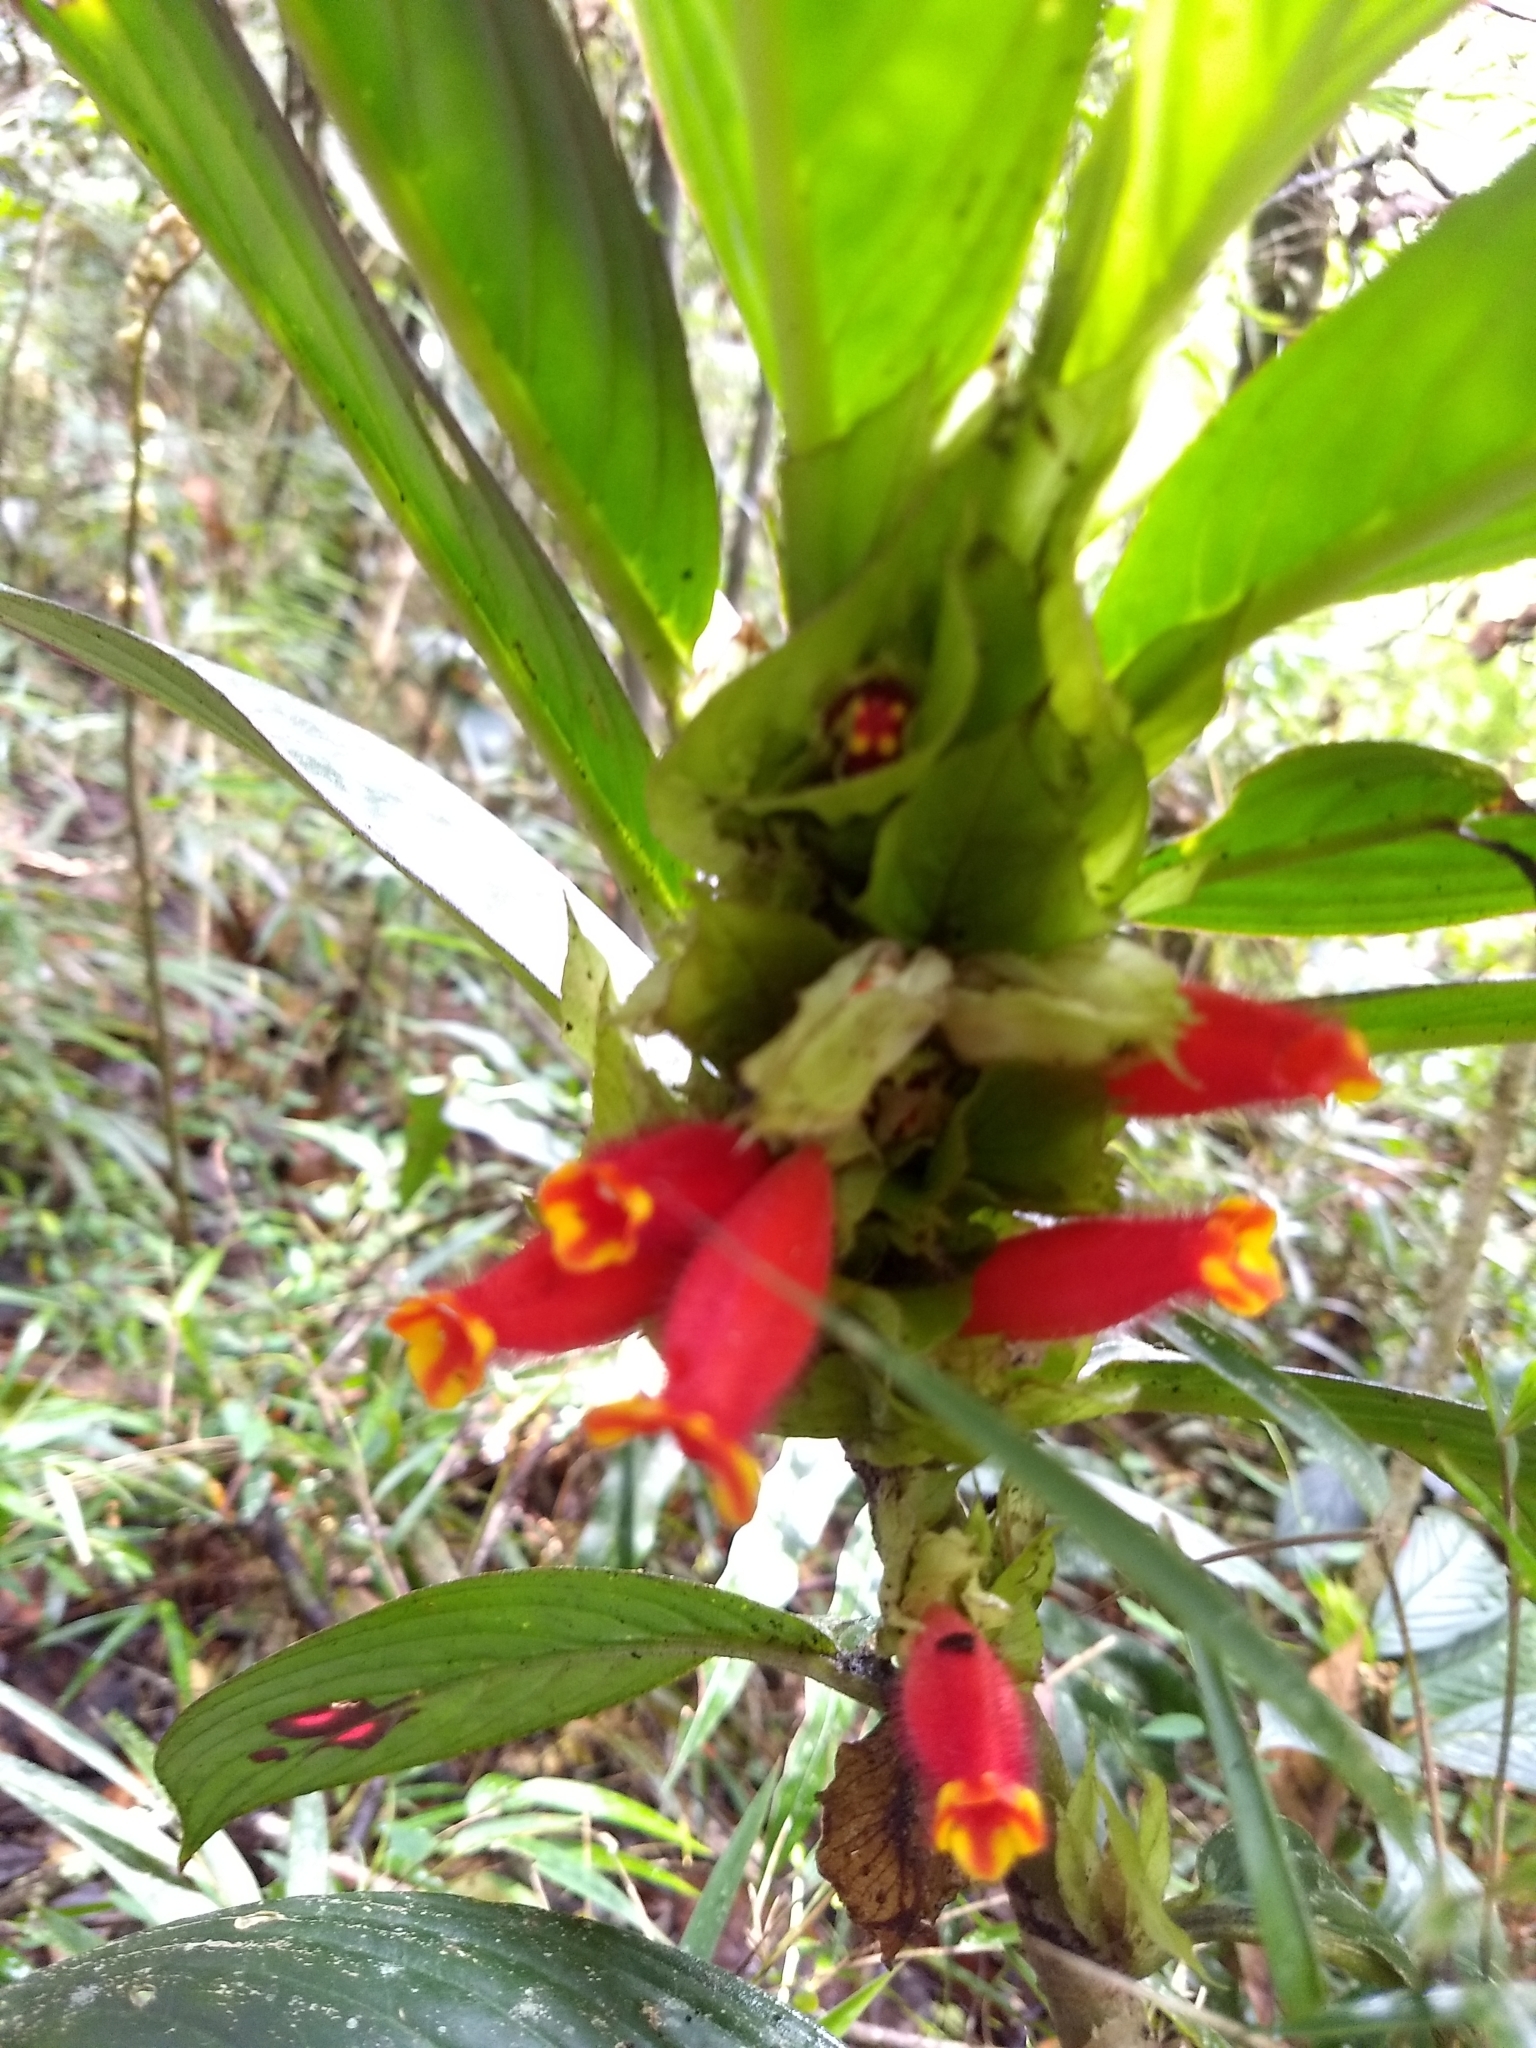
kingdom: Plantae
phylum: Tracheophyta
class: Magnoliopsida
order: Lamiales
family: Gesneriaceae
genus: Columnea
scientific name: Columnea dimidiata
